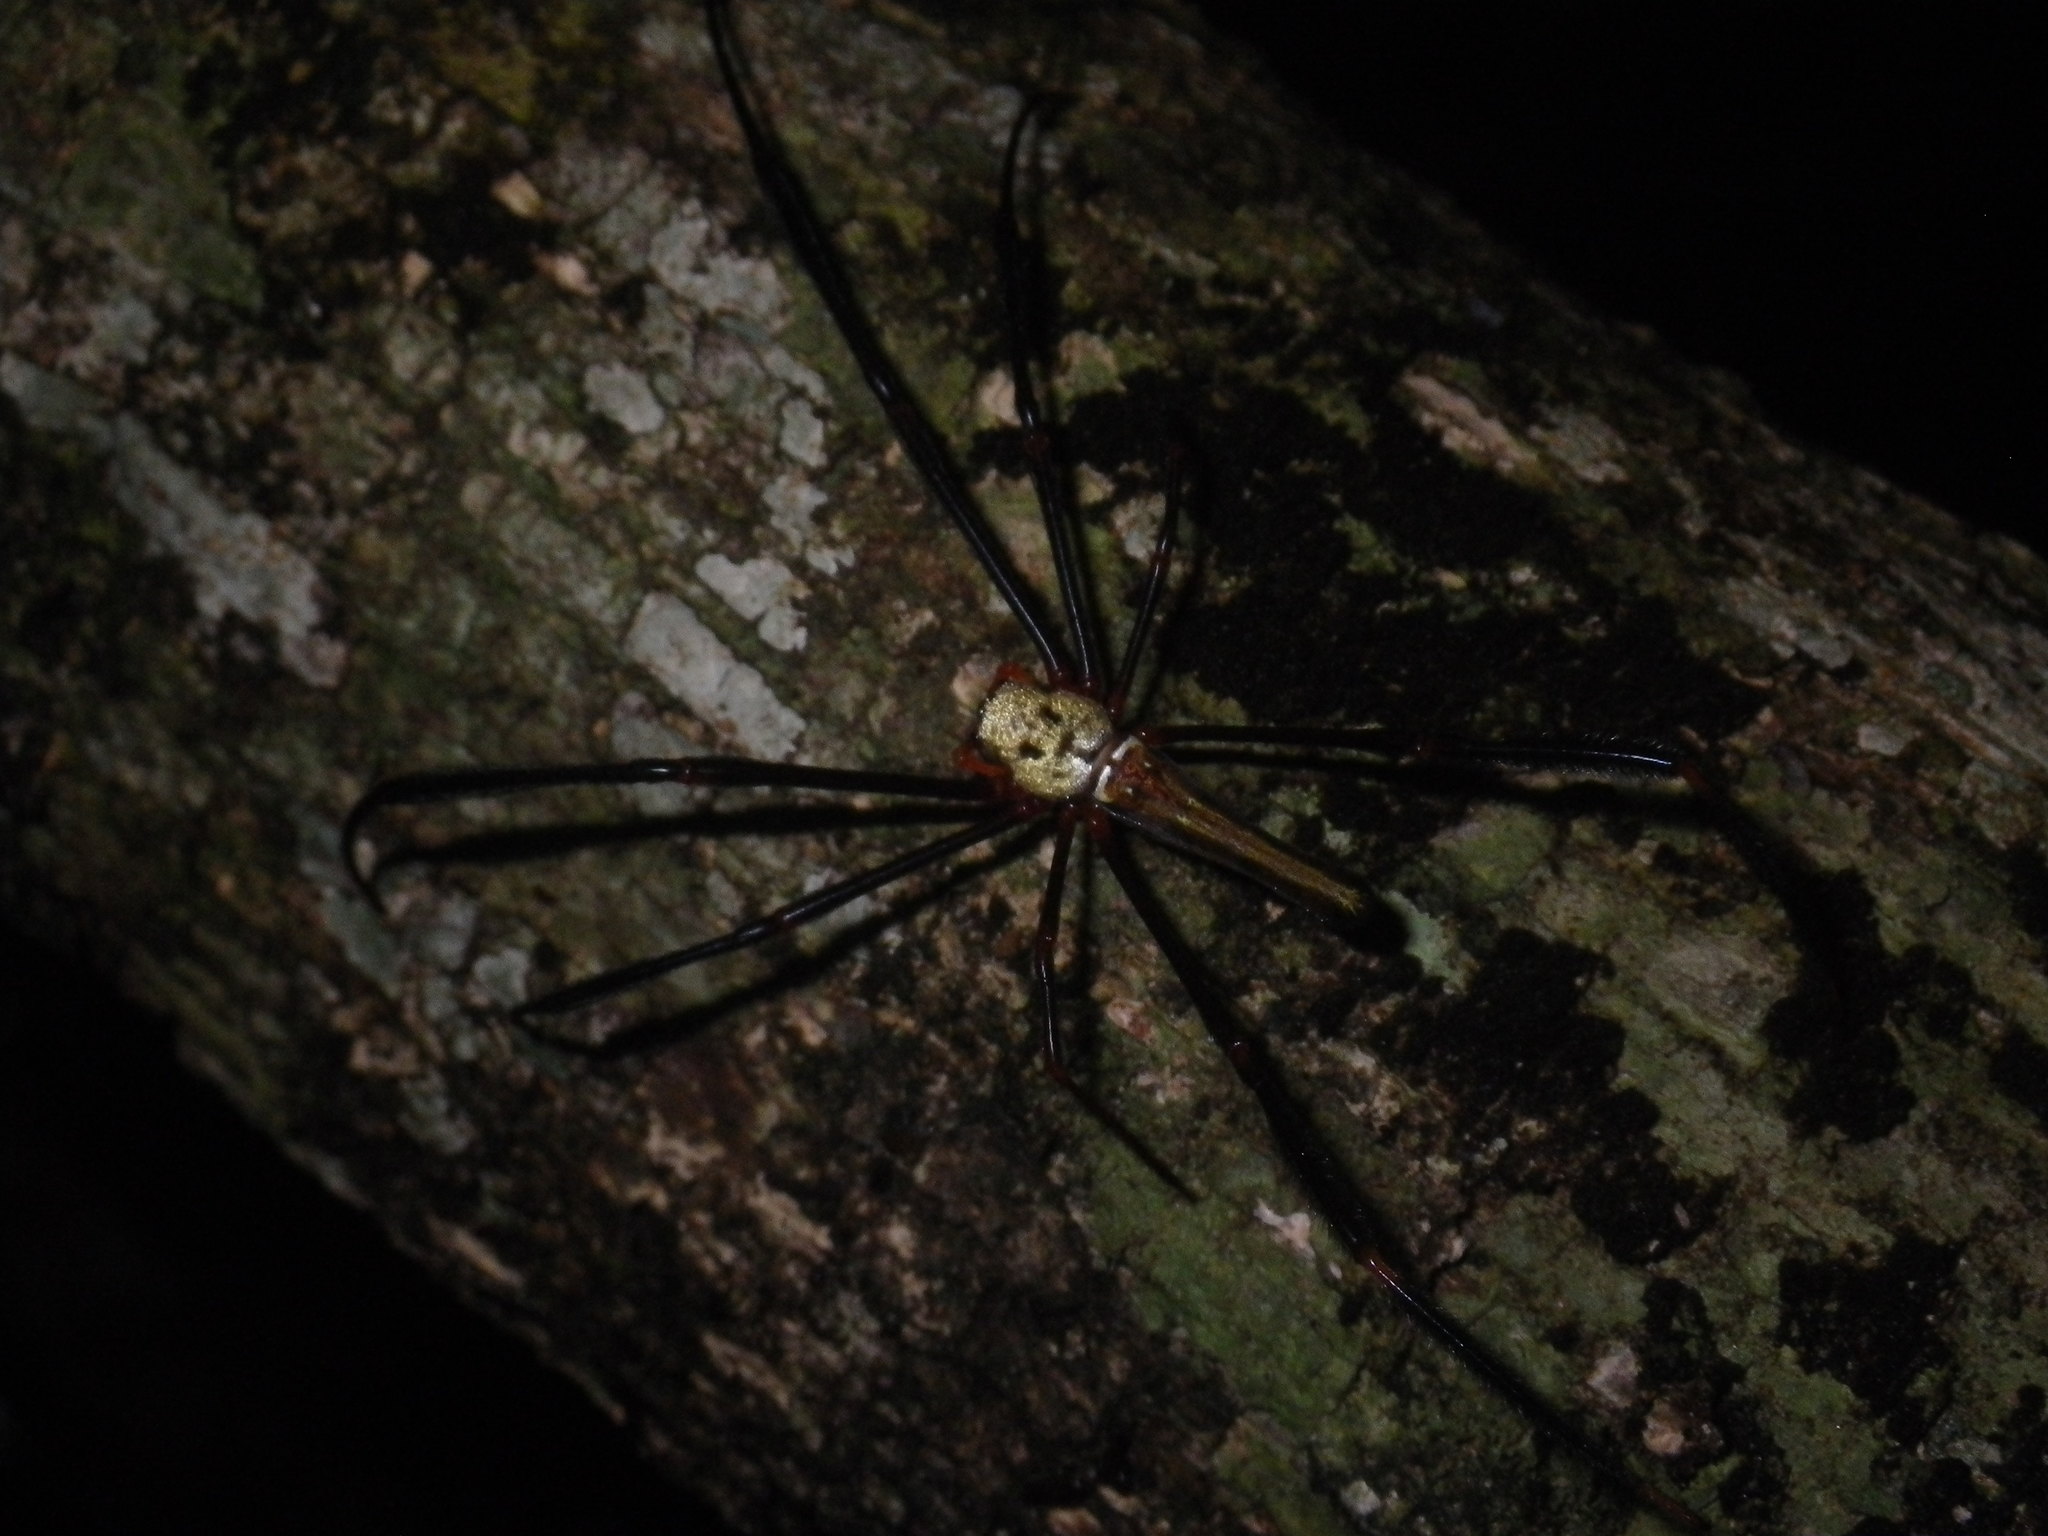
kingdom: Animalia
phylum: Arthropoda
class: Arachnida
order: Araneae
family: Araneidae
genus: Nephila
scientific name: Nephila pilipes
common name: Giant golden orb weaver
